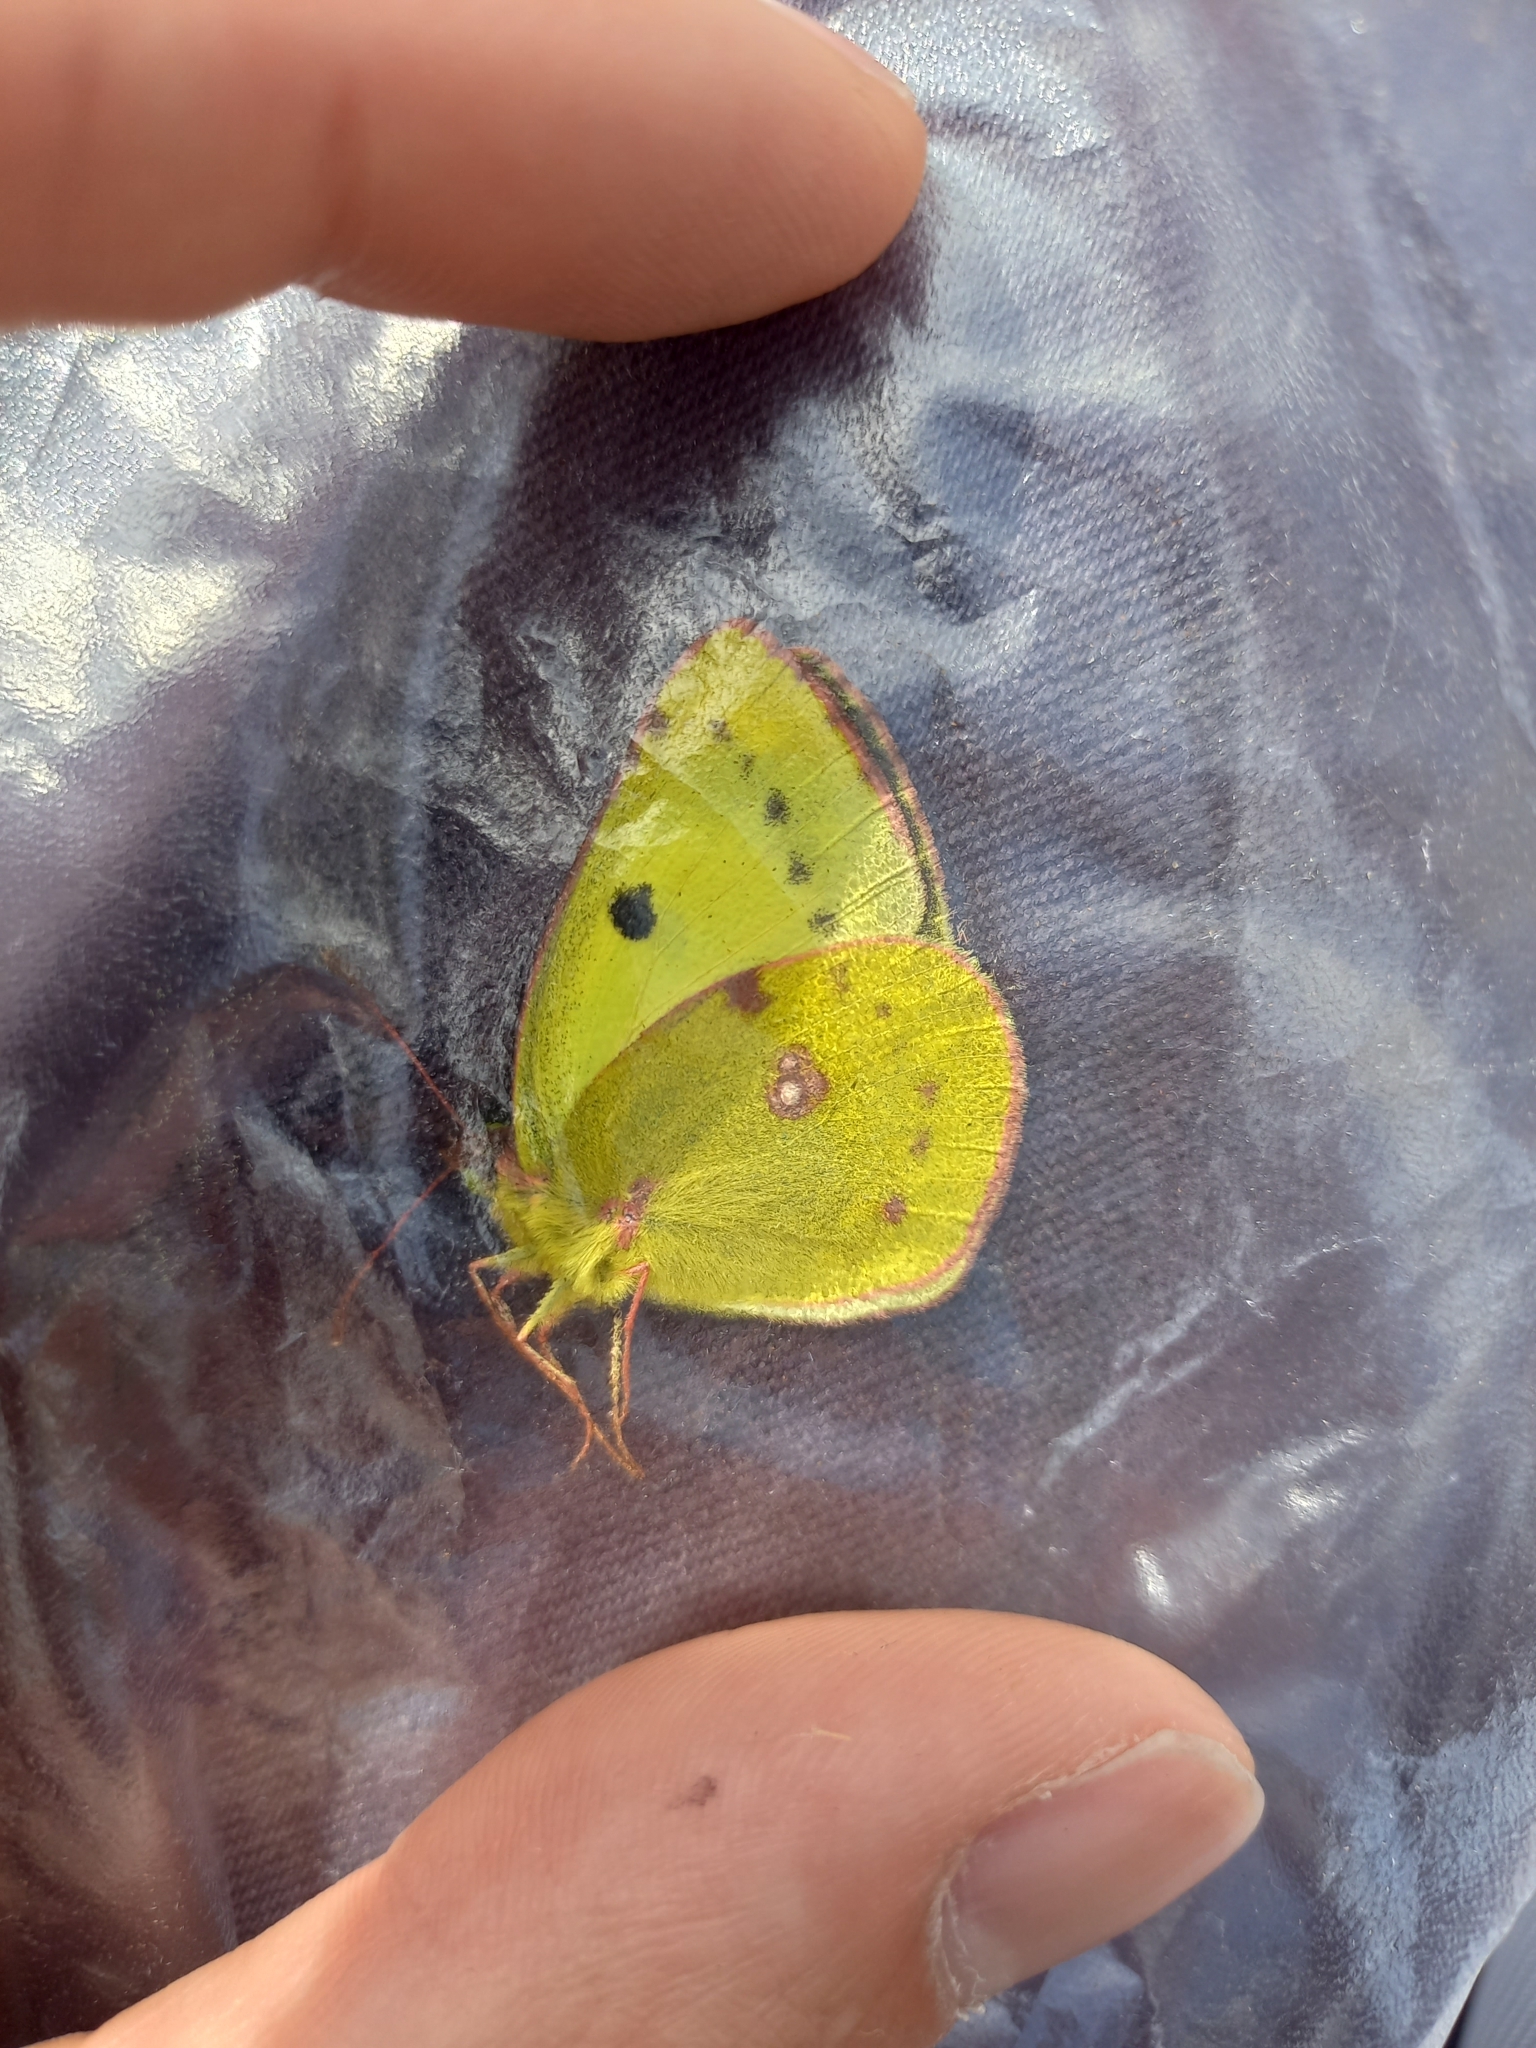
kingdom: Animalia
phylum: Arthropoda
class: Insecta
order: Lepidoptera
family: Pieridae
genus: Colias
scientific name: Colias alfacariensis
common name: Berger's clouded yellow
